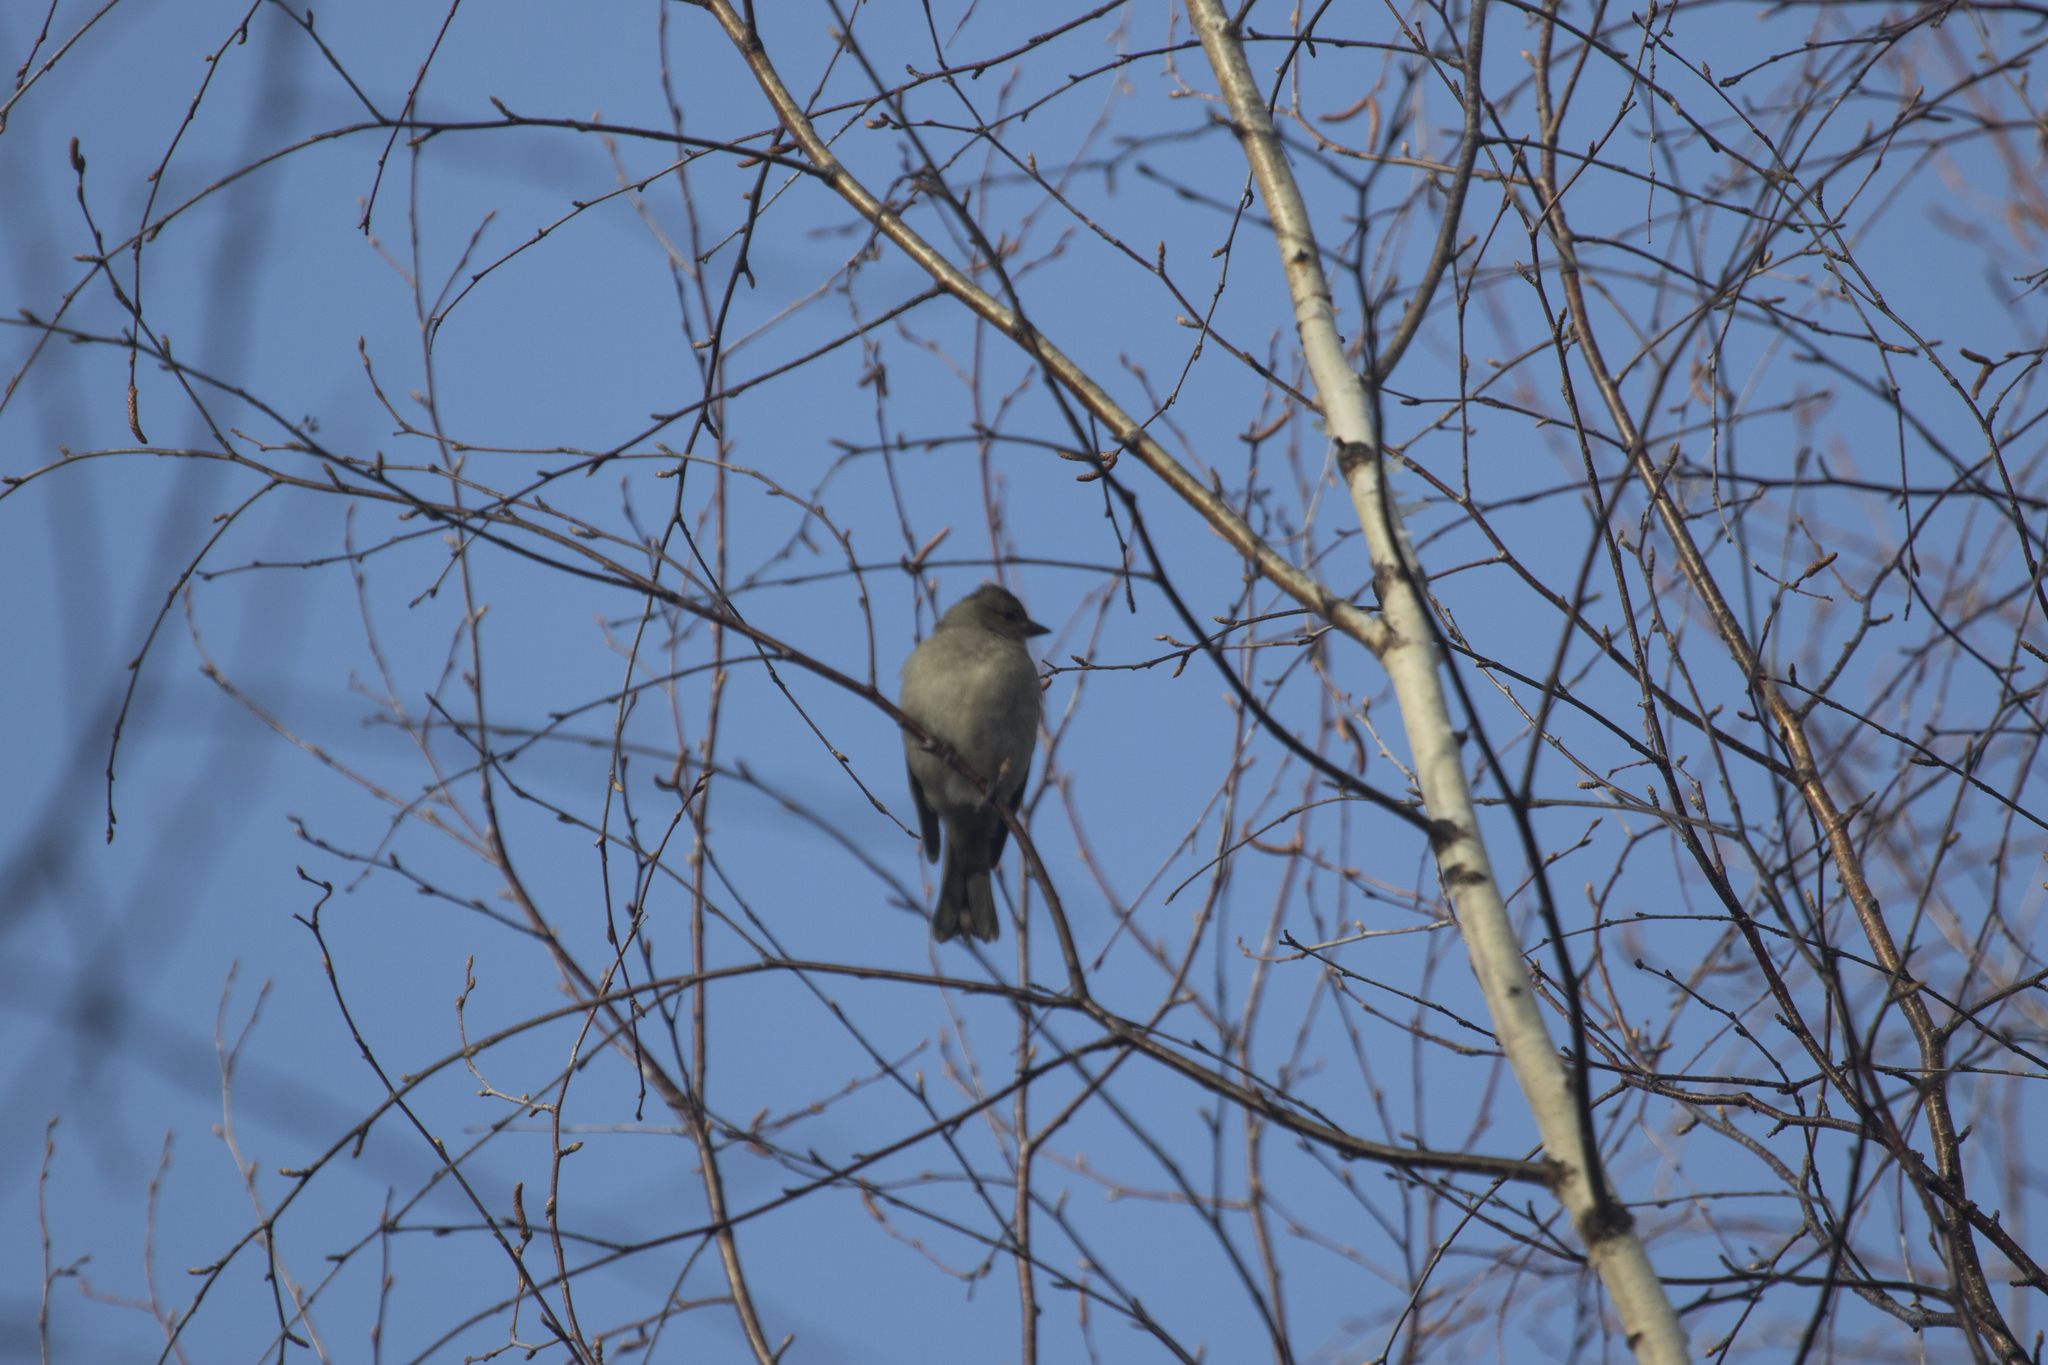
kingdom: Animalia
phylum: Chordata
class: Aves
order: Passeriformes
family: Fringillidae
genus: Fringilla
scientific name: Fringilla coelebs
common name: Common chaffinch
